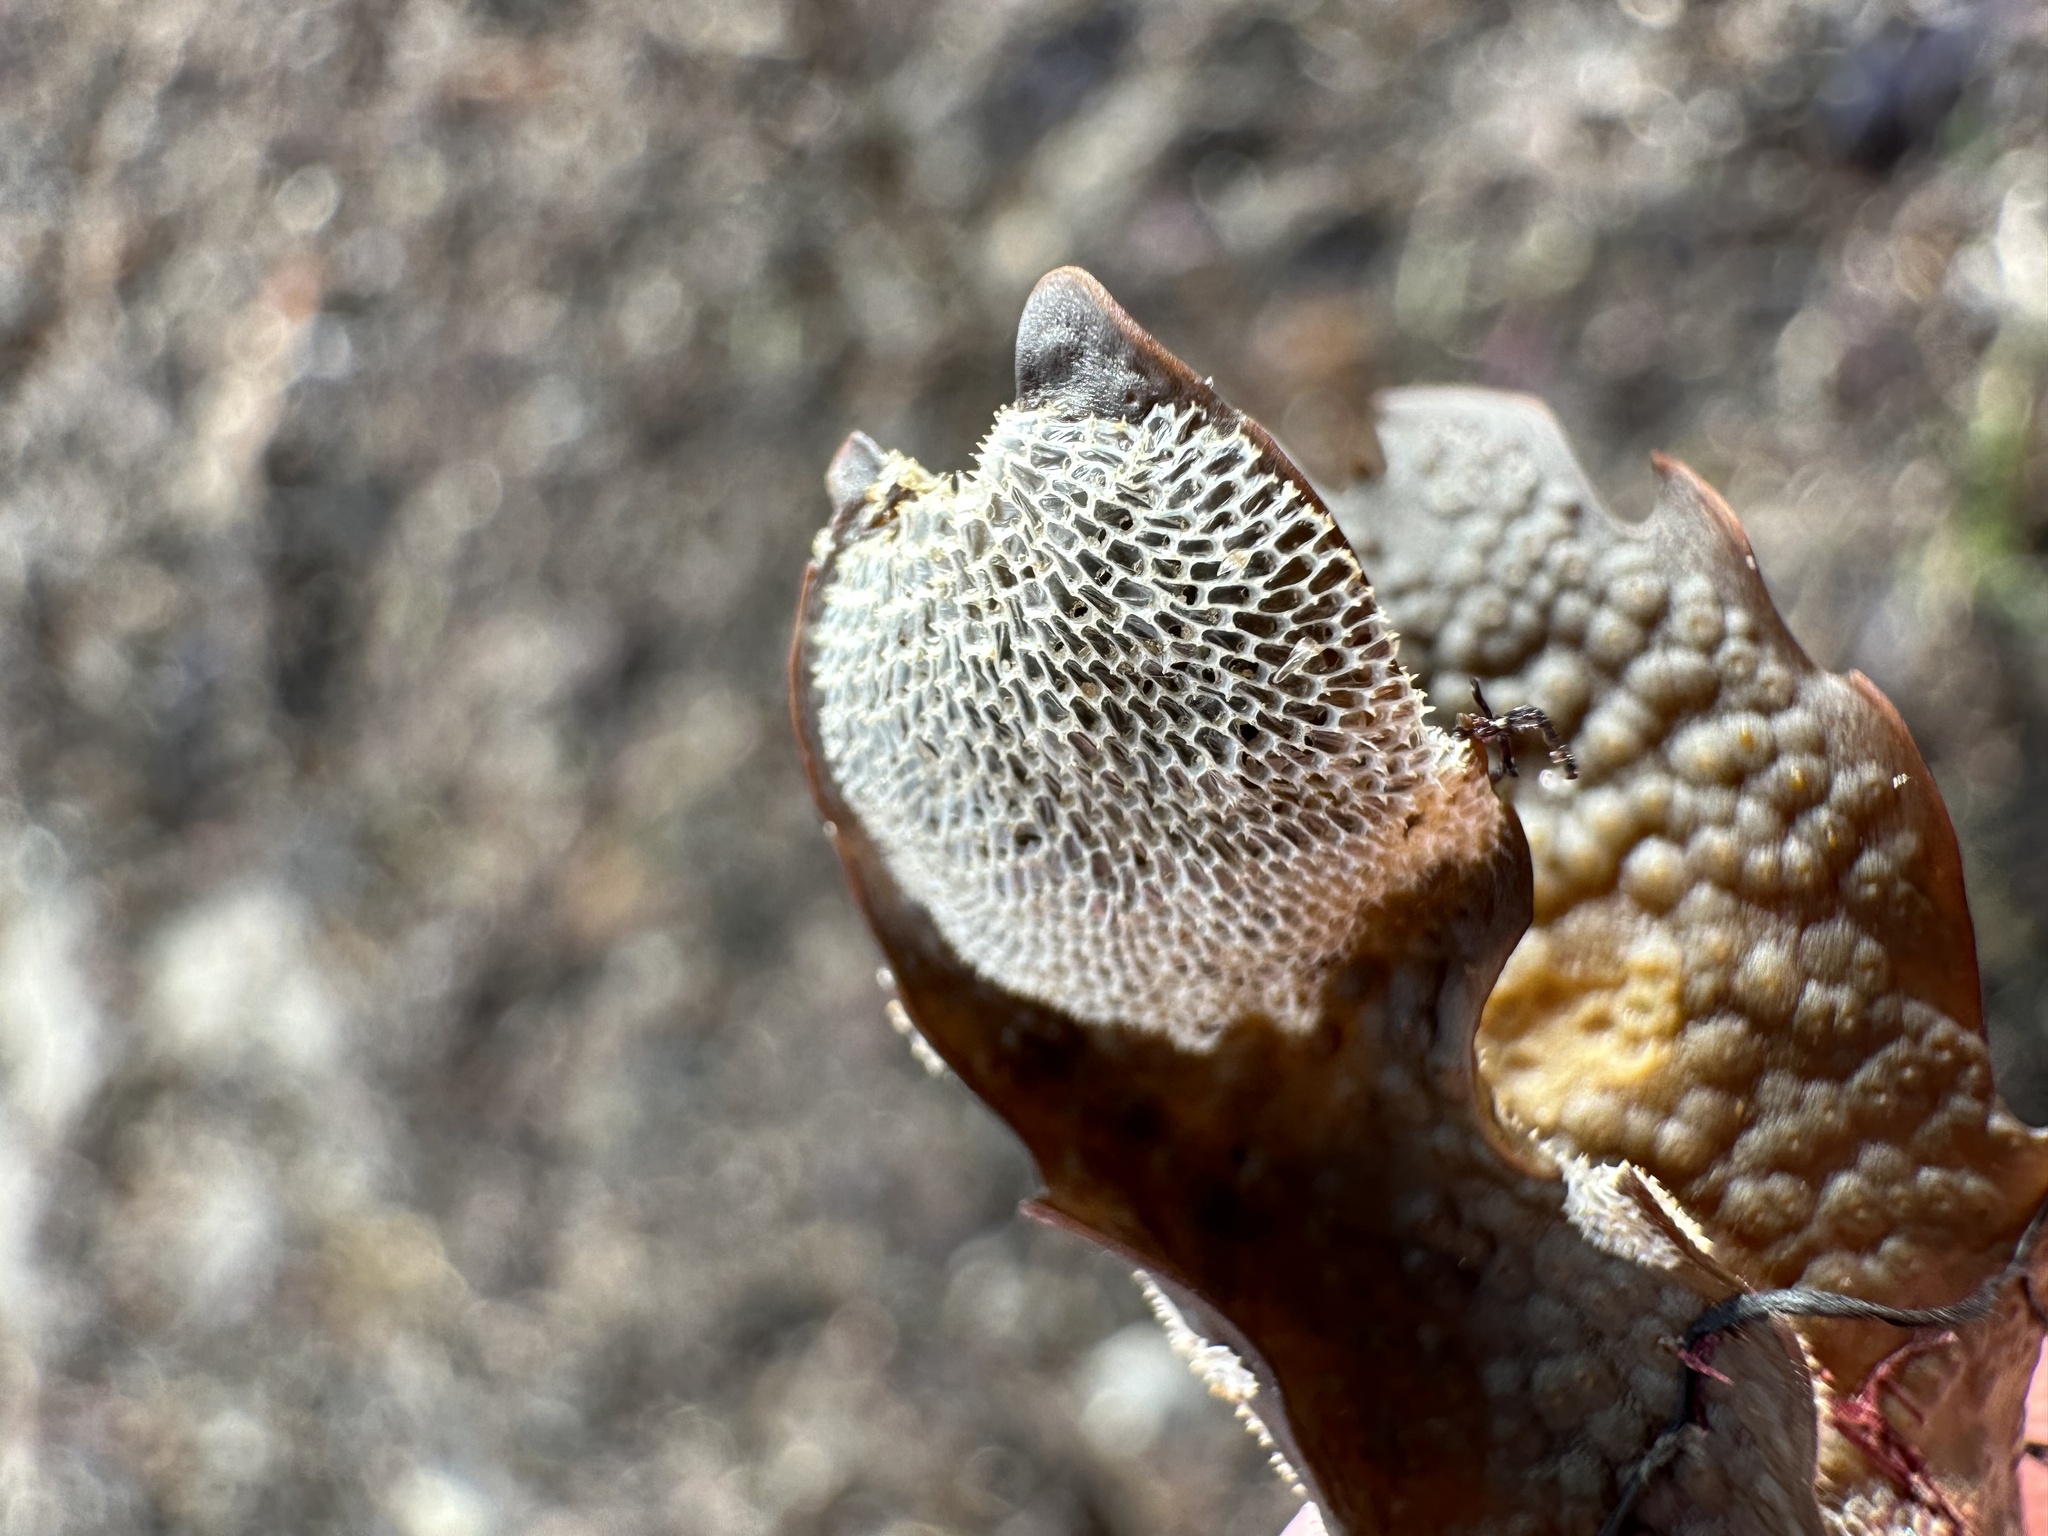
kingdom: Animalia
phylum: Bryozoa
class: Gymnolaemata
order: Cheilostomatida
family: Membraniporidae
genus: Membranipora
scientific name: Membranipora membranacea
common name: Sea mat
